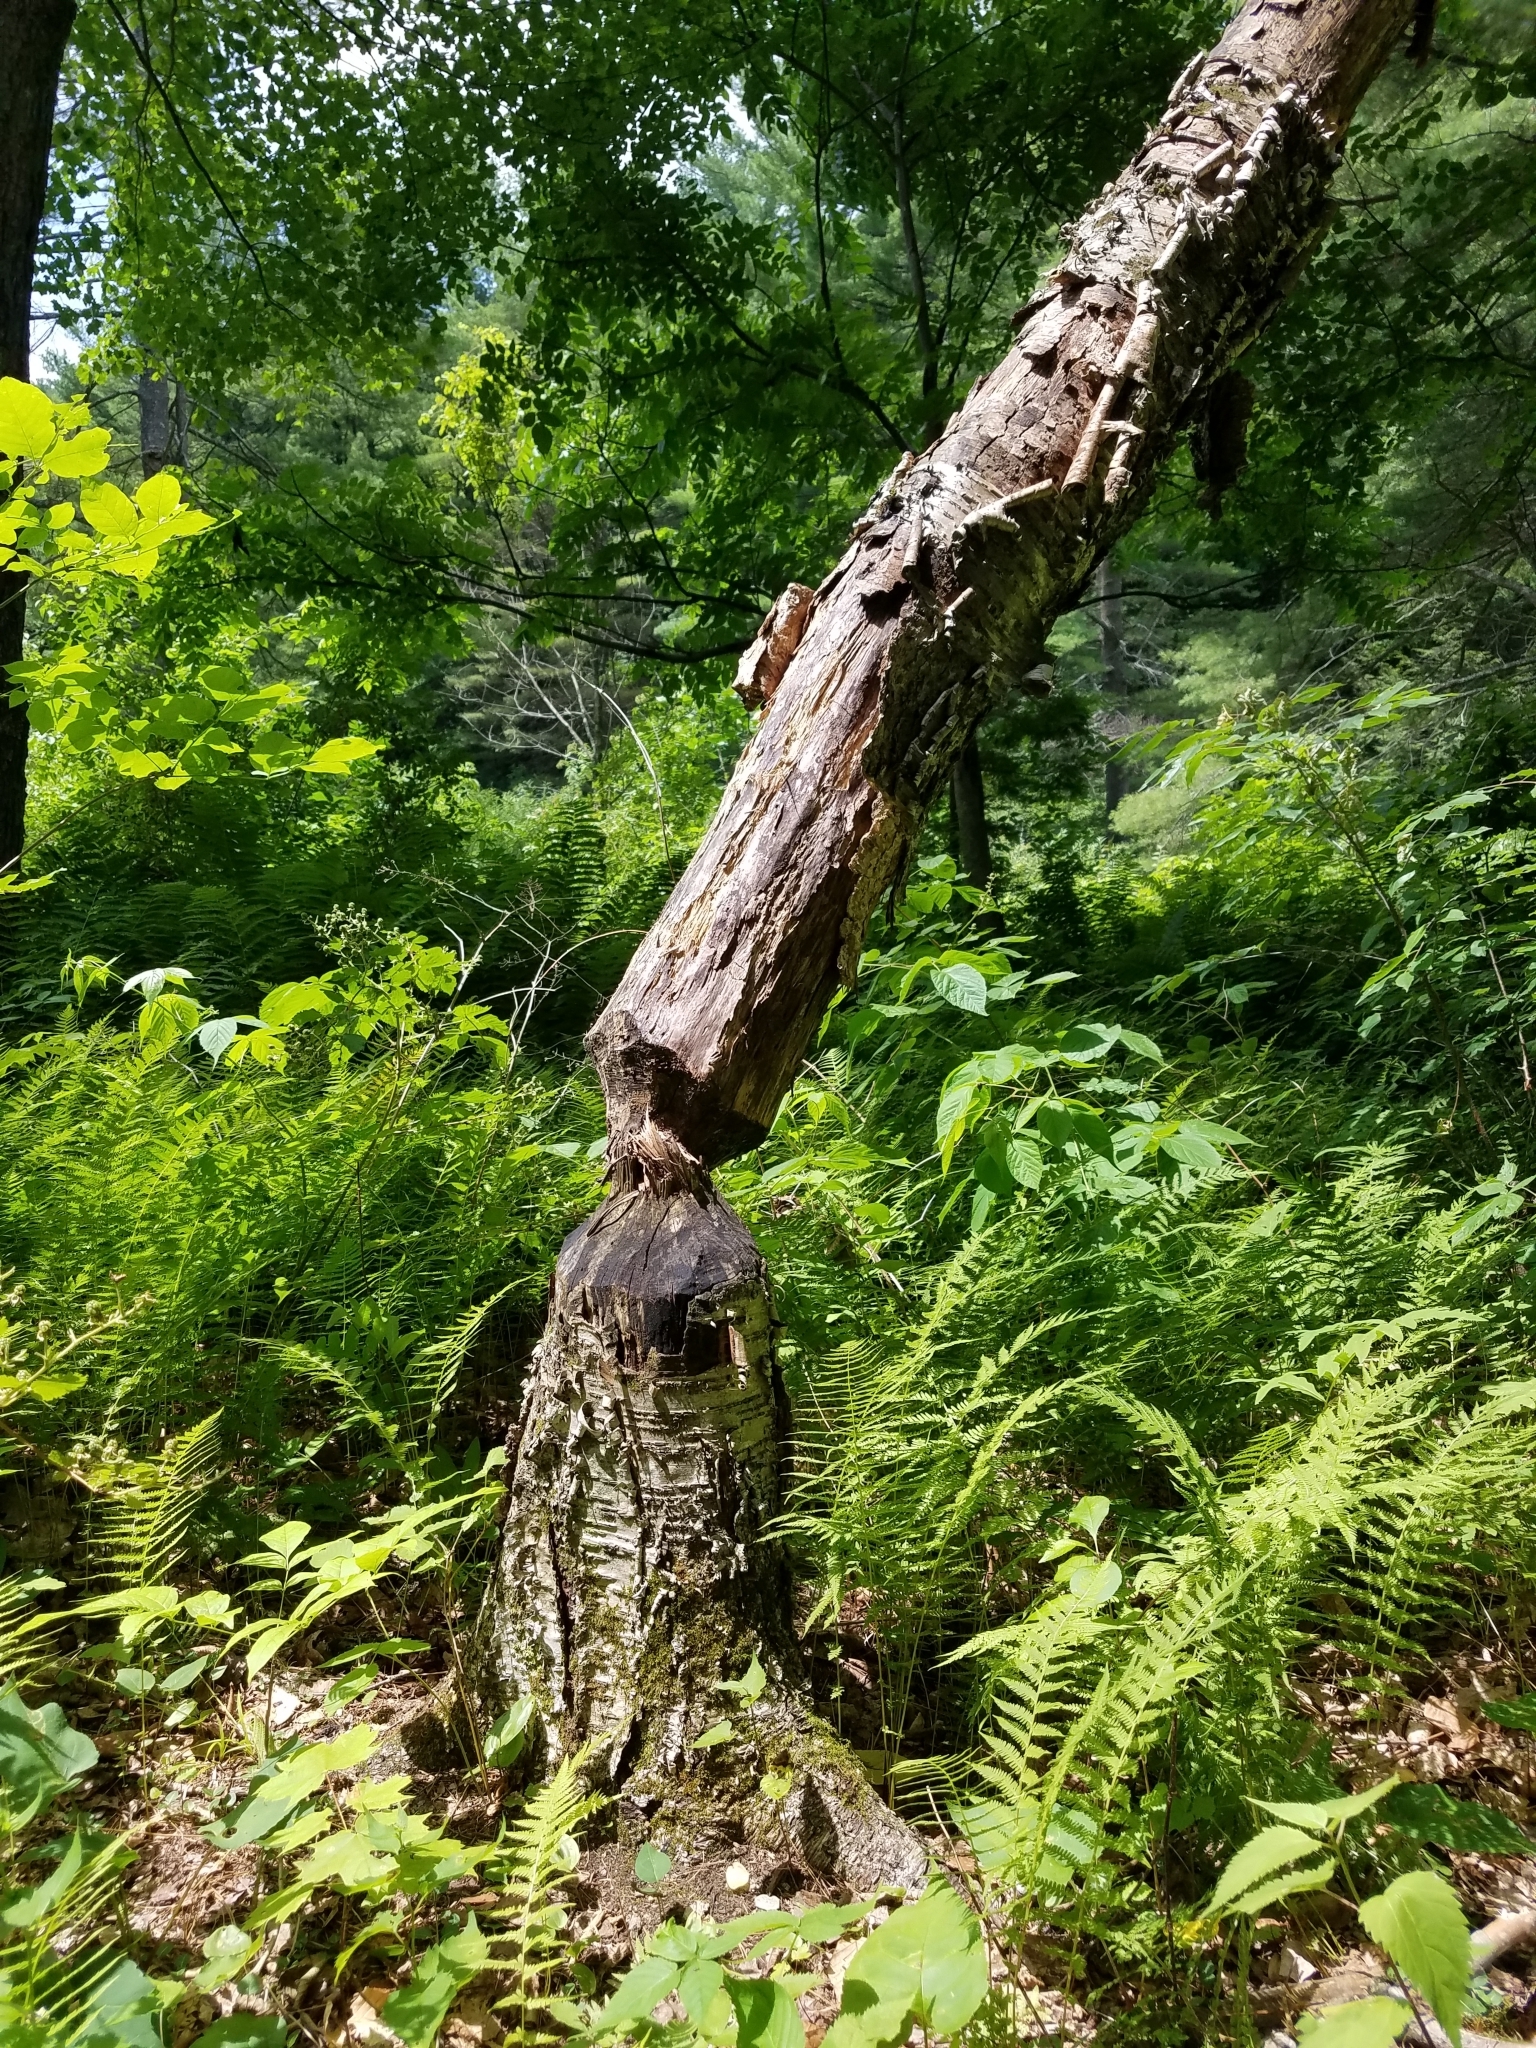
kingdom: Animalia
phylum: Chordata
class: Mammalia
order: Rodentia
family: Castoridae
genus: Castor
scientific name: Castor canadensis
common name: American beaver
